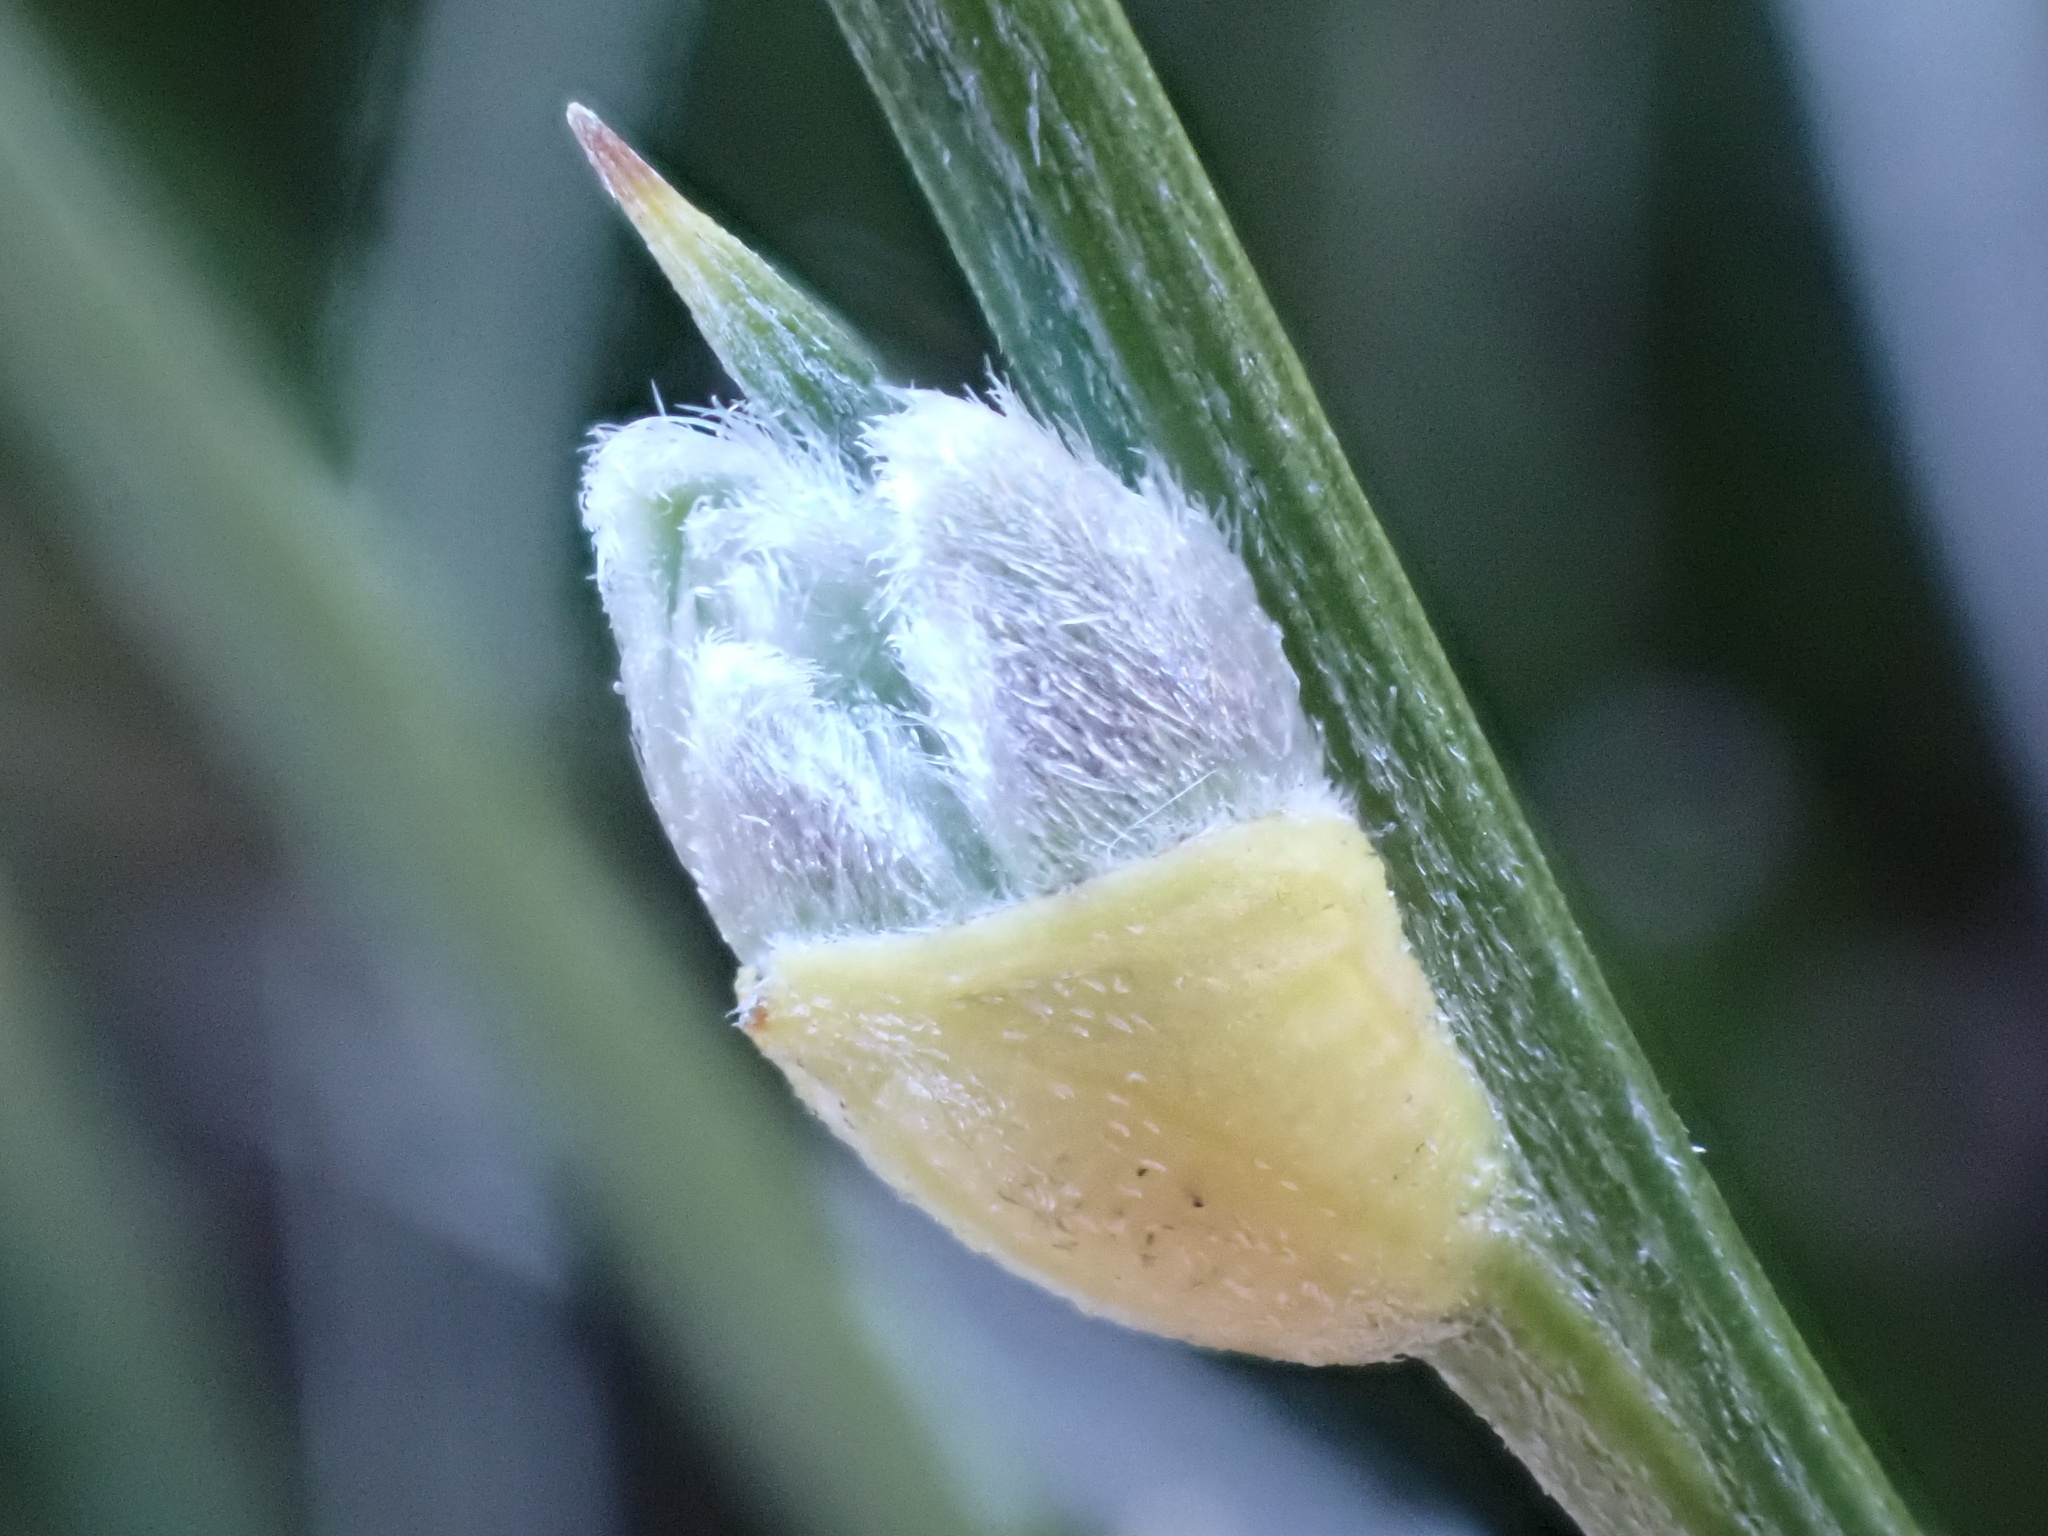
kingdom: Plantae
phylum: Tracheophyta
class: Magnoliopsida
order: Fabales
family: Fabaceae
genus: Erinacea
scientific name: Erinacea anthyllis
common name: Hedgehog-broom
